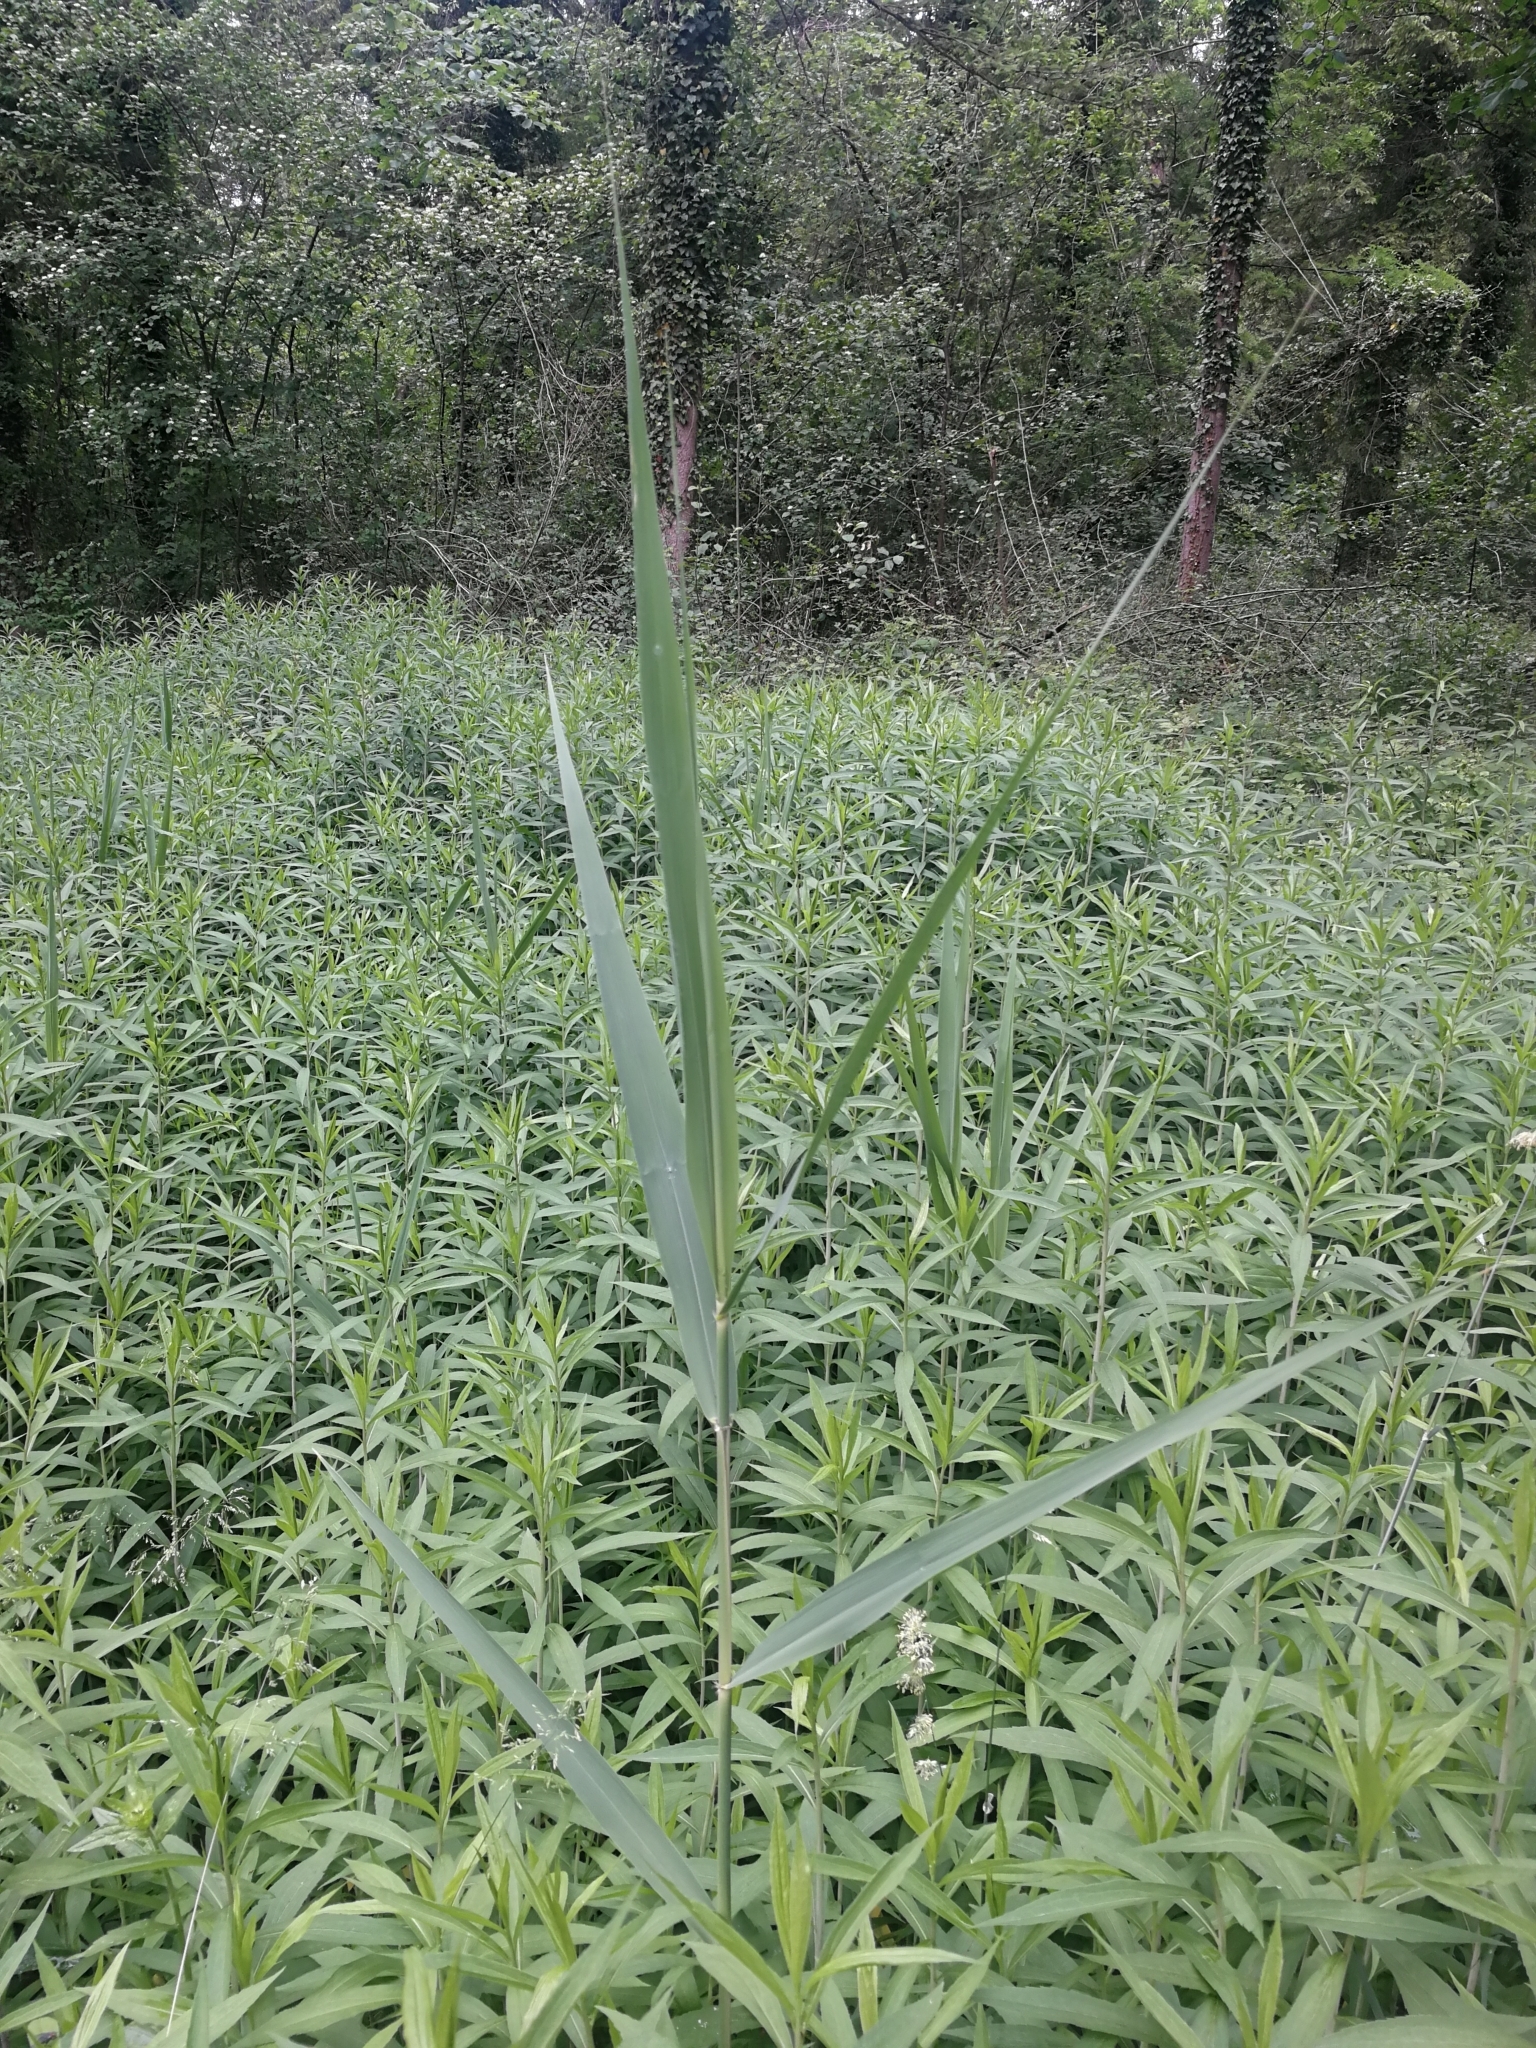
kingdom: Plantae
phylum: Tracheophyta
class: Liliopsida
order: Poales
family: Poaceae
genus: Phragmites
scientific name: Phragmites australis
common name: Common reed
